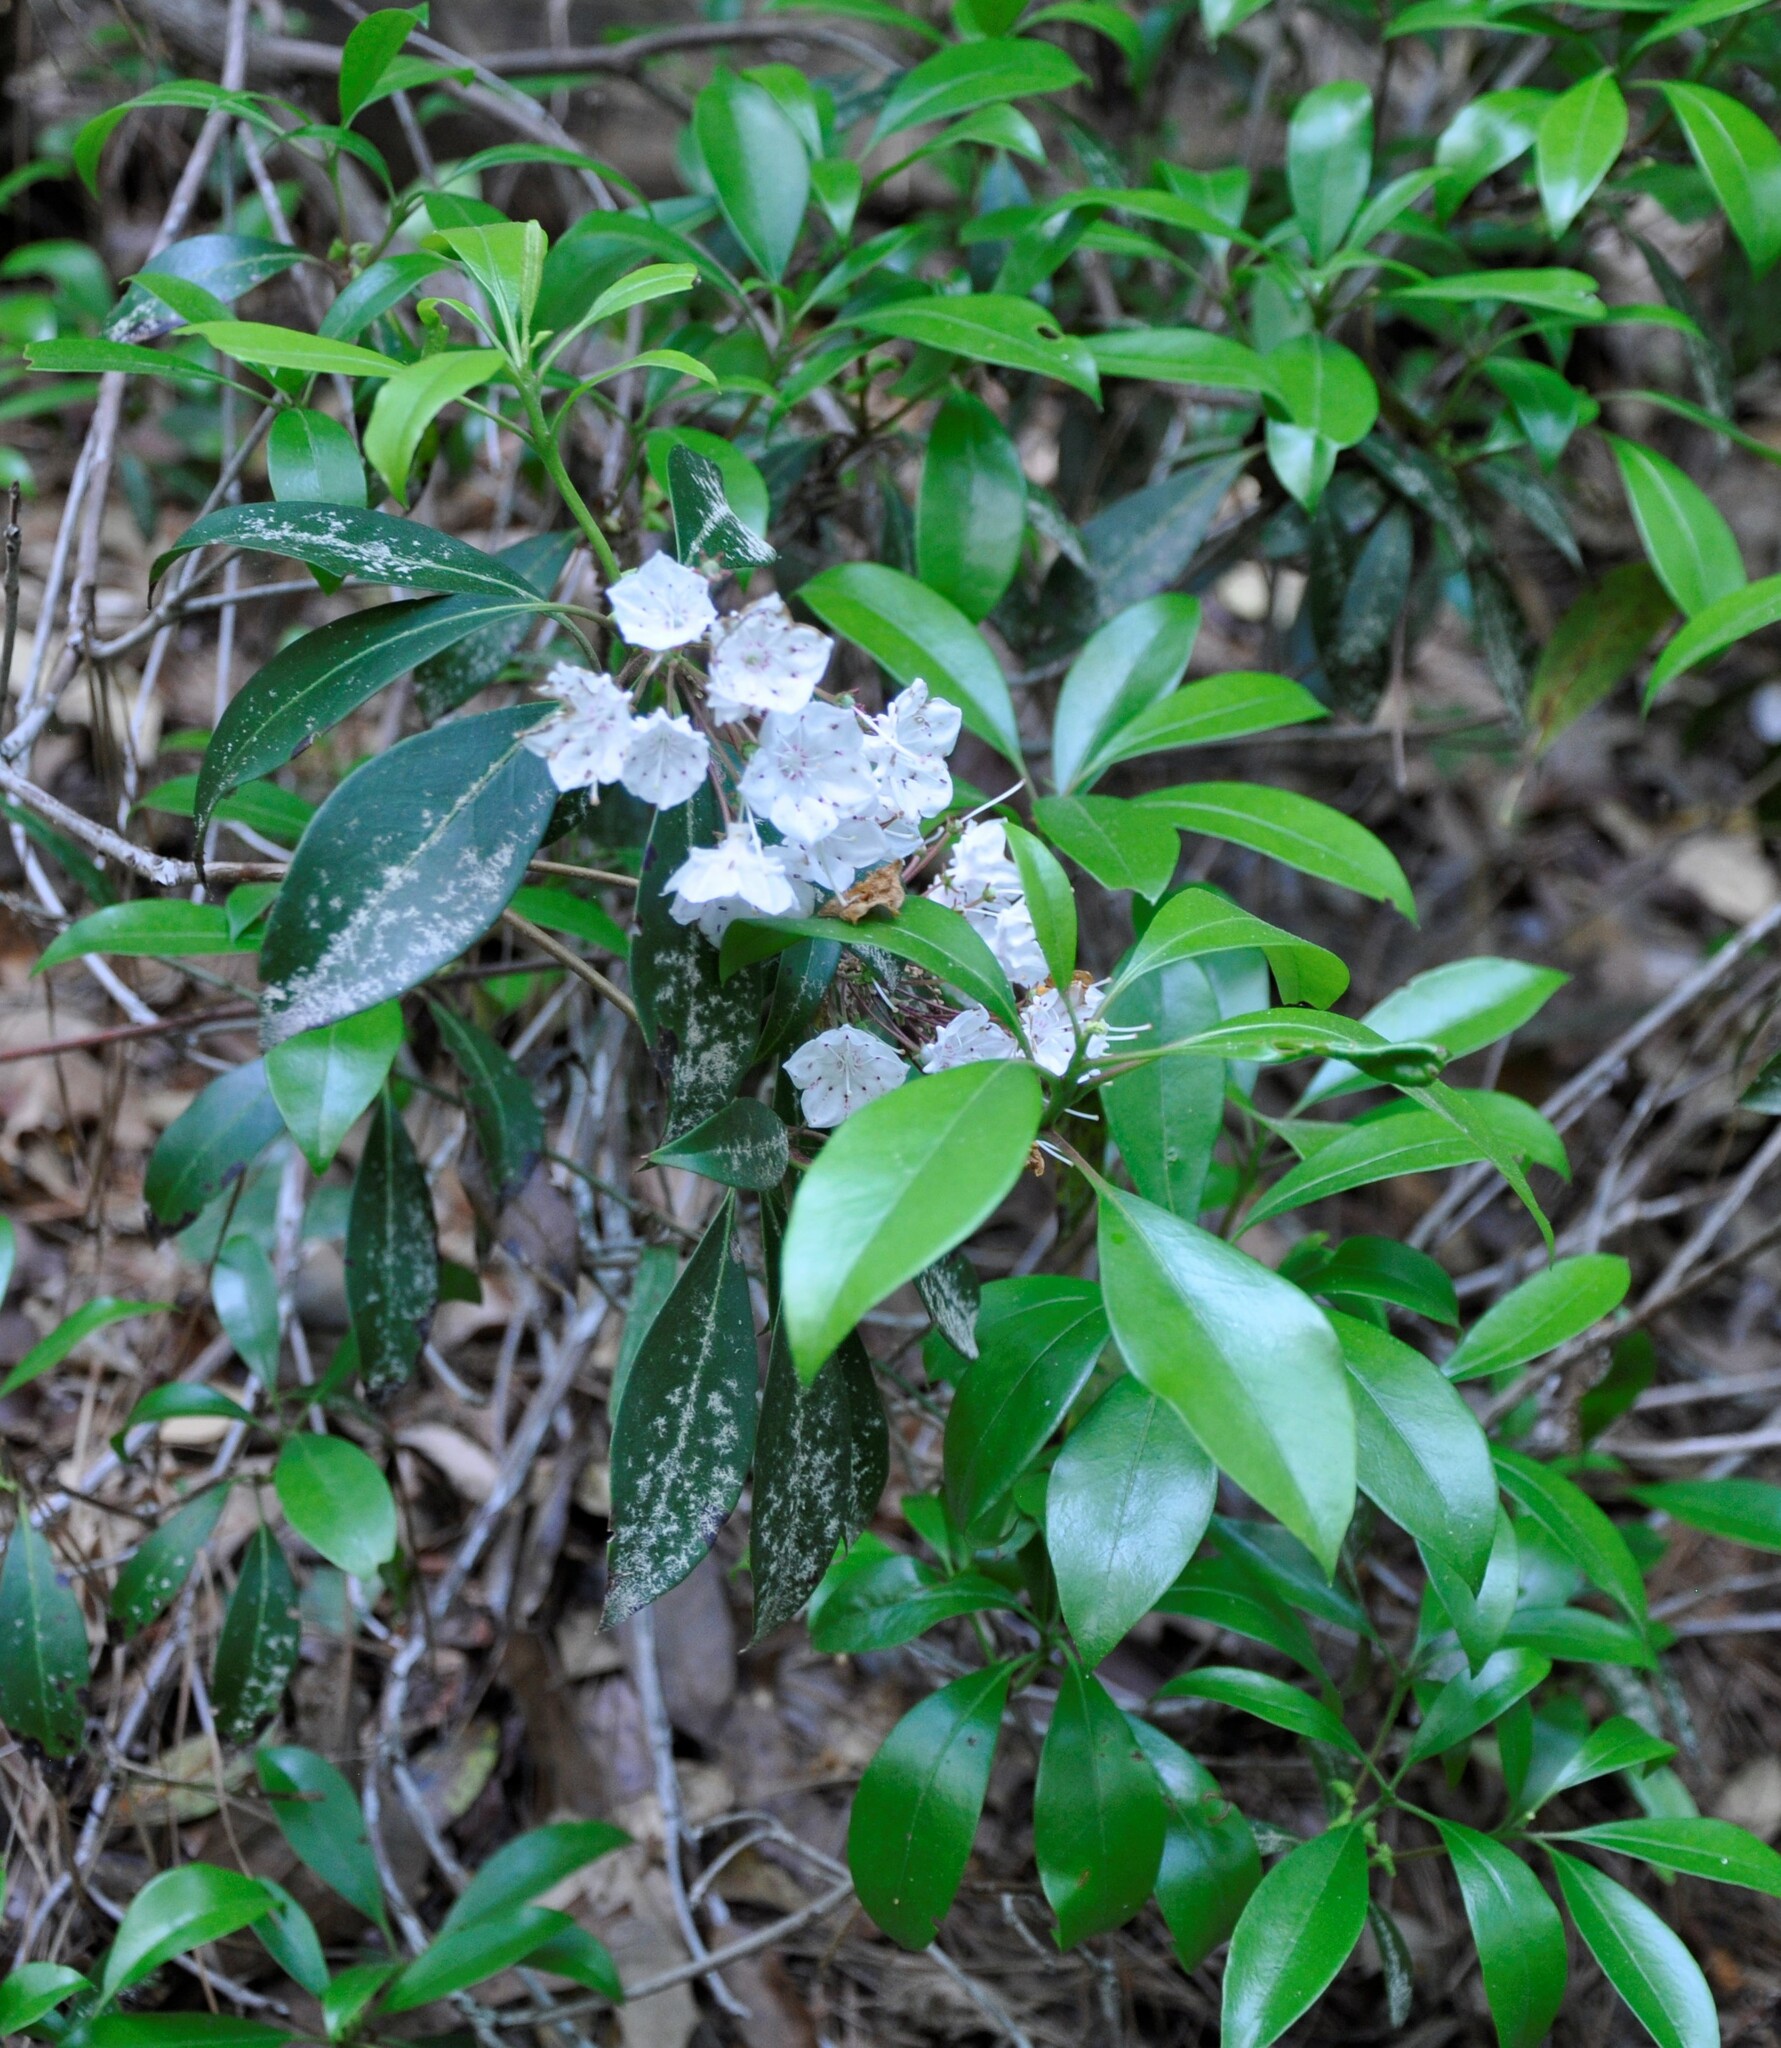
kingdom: Plantae
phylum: Tracheophyta
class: Magnoliopsida
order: Ericales
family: Ericaceae
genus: Kalmia
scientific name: Kalmia latifolia
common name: Mountain-laurel
